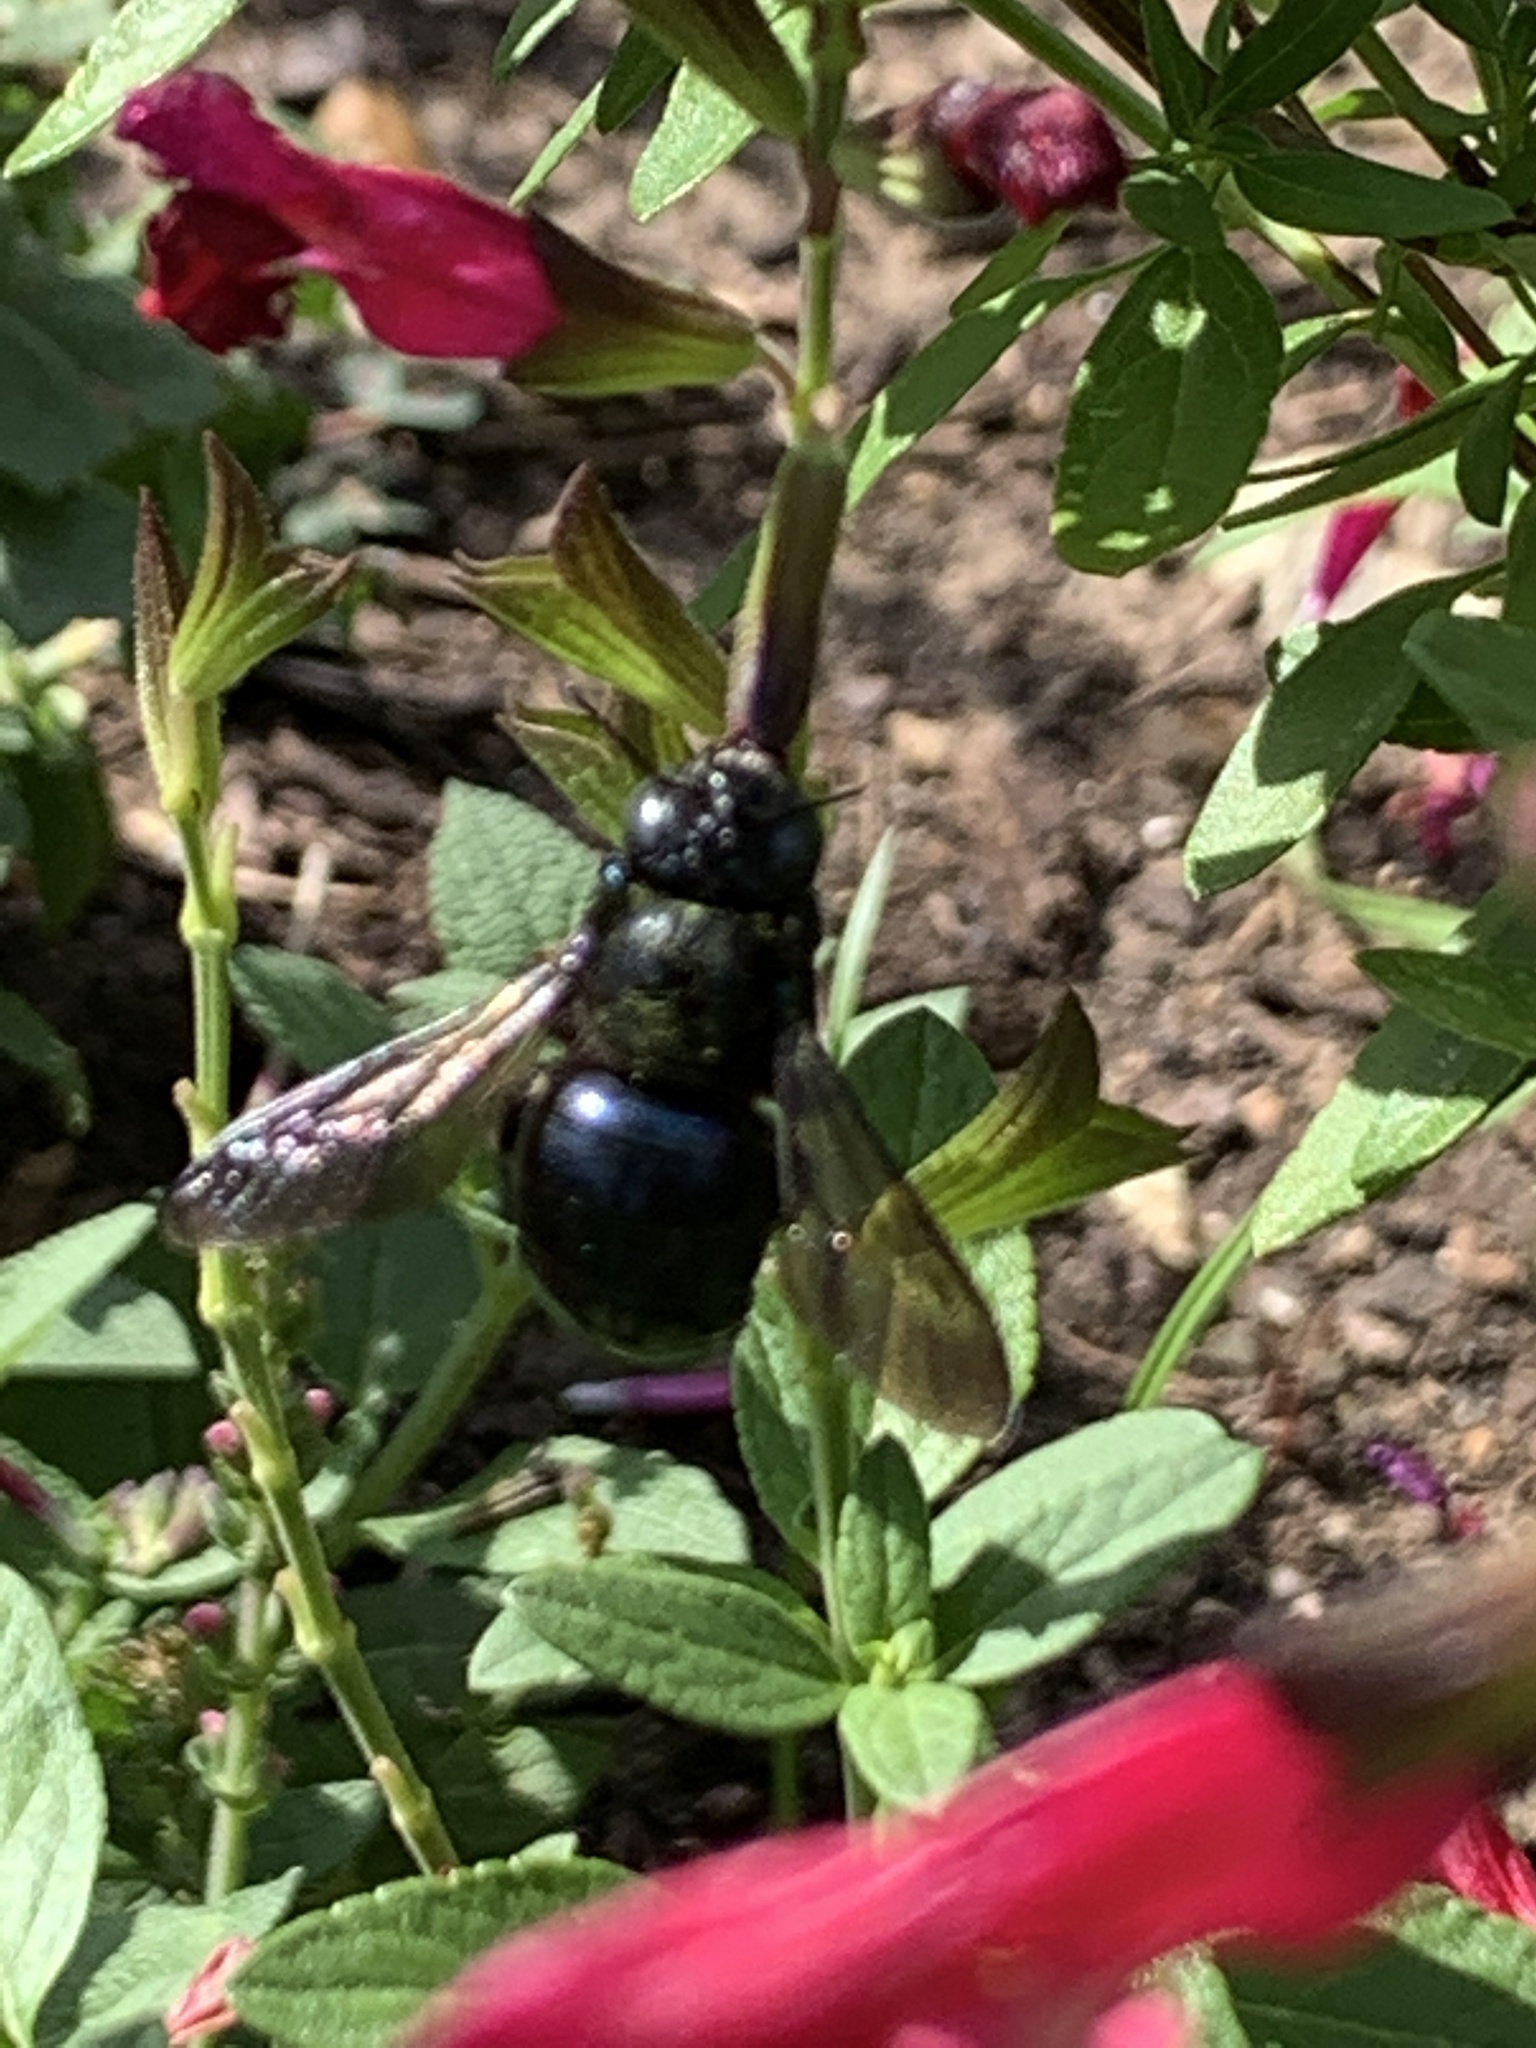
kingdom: Animalia
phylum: Arthropoda
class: Insecta
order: Hymenoptera
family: Apidae
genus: Xylocopa
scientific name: Xylocopa micans
